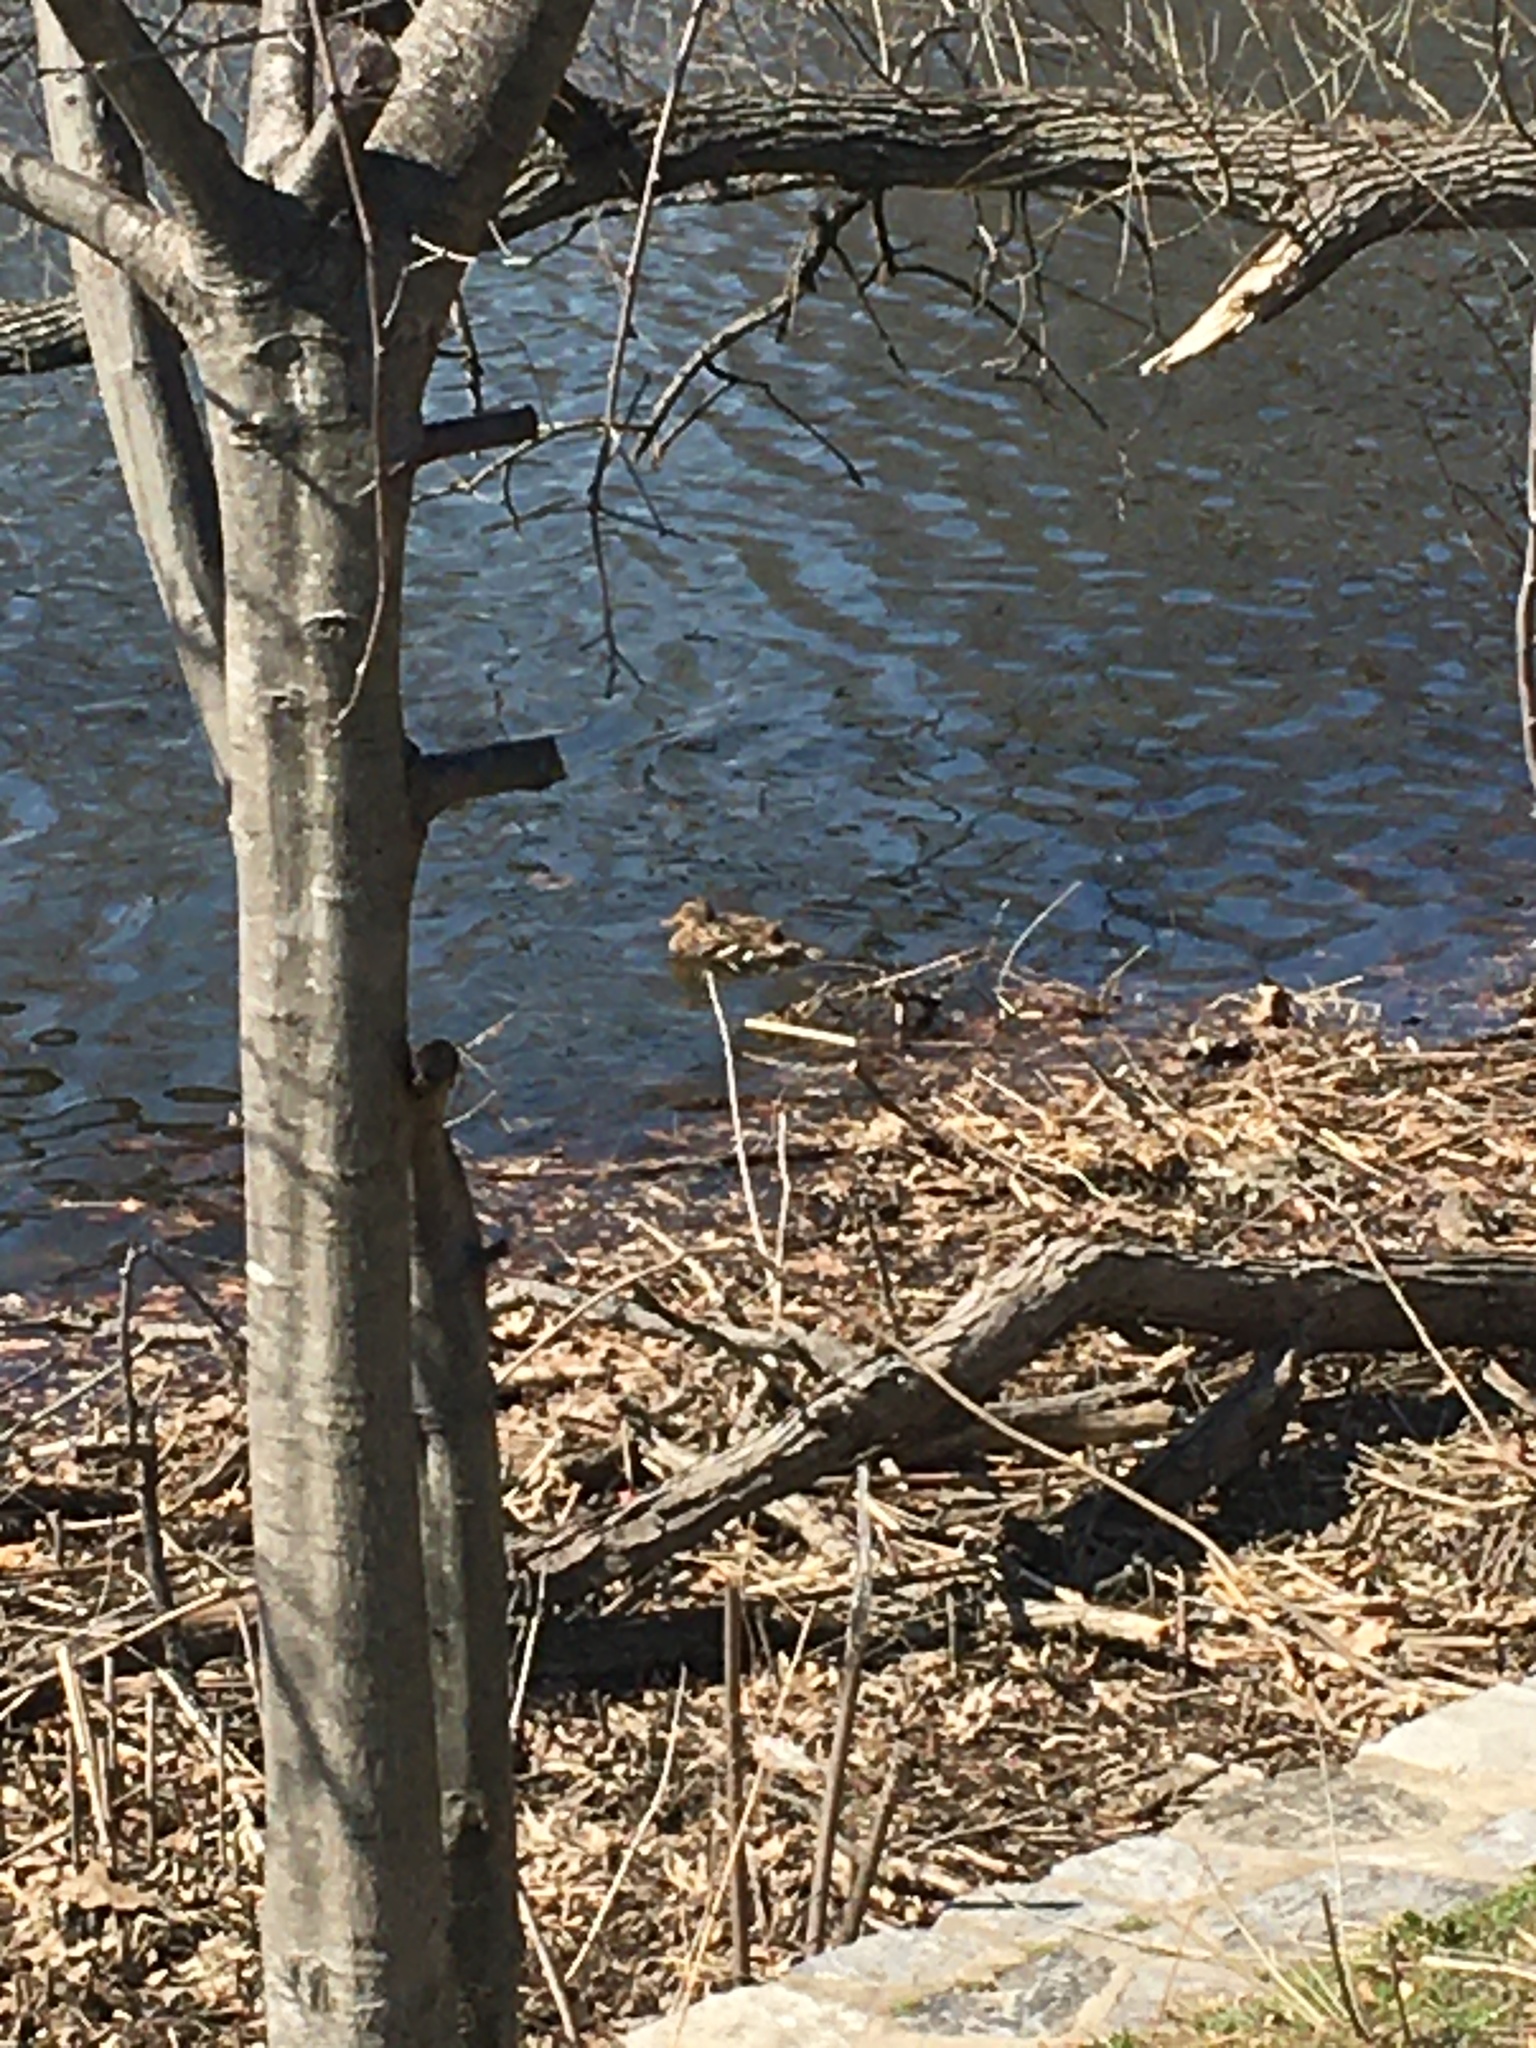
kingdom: Animalia
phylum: Chordata
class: Aves
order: Anseriformes
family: Anatidae
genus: Anas
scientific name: Anas platyrhynchos
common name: Mallard
